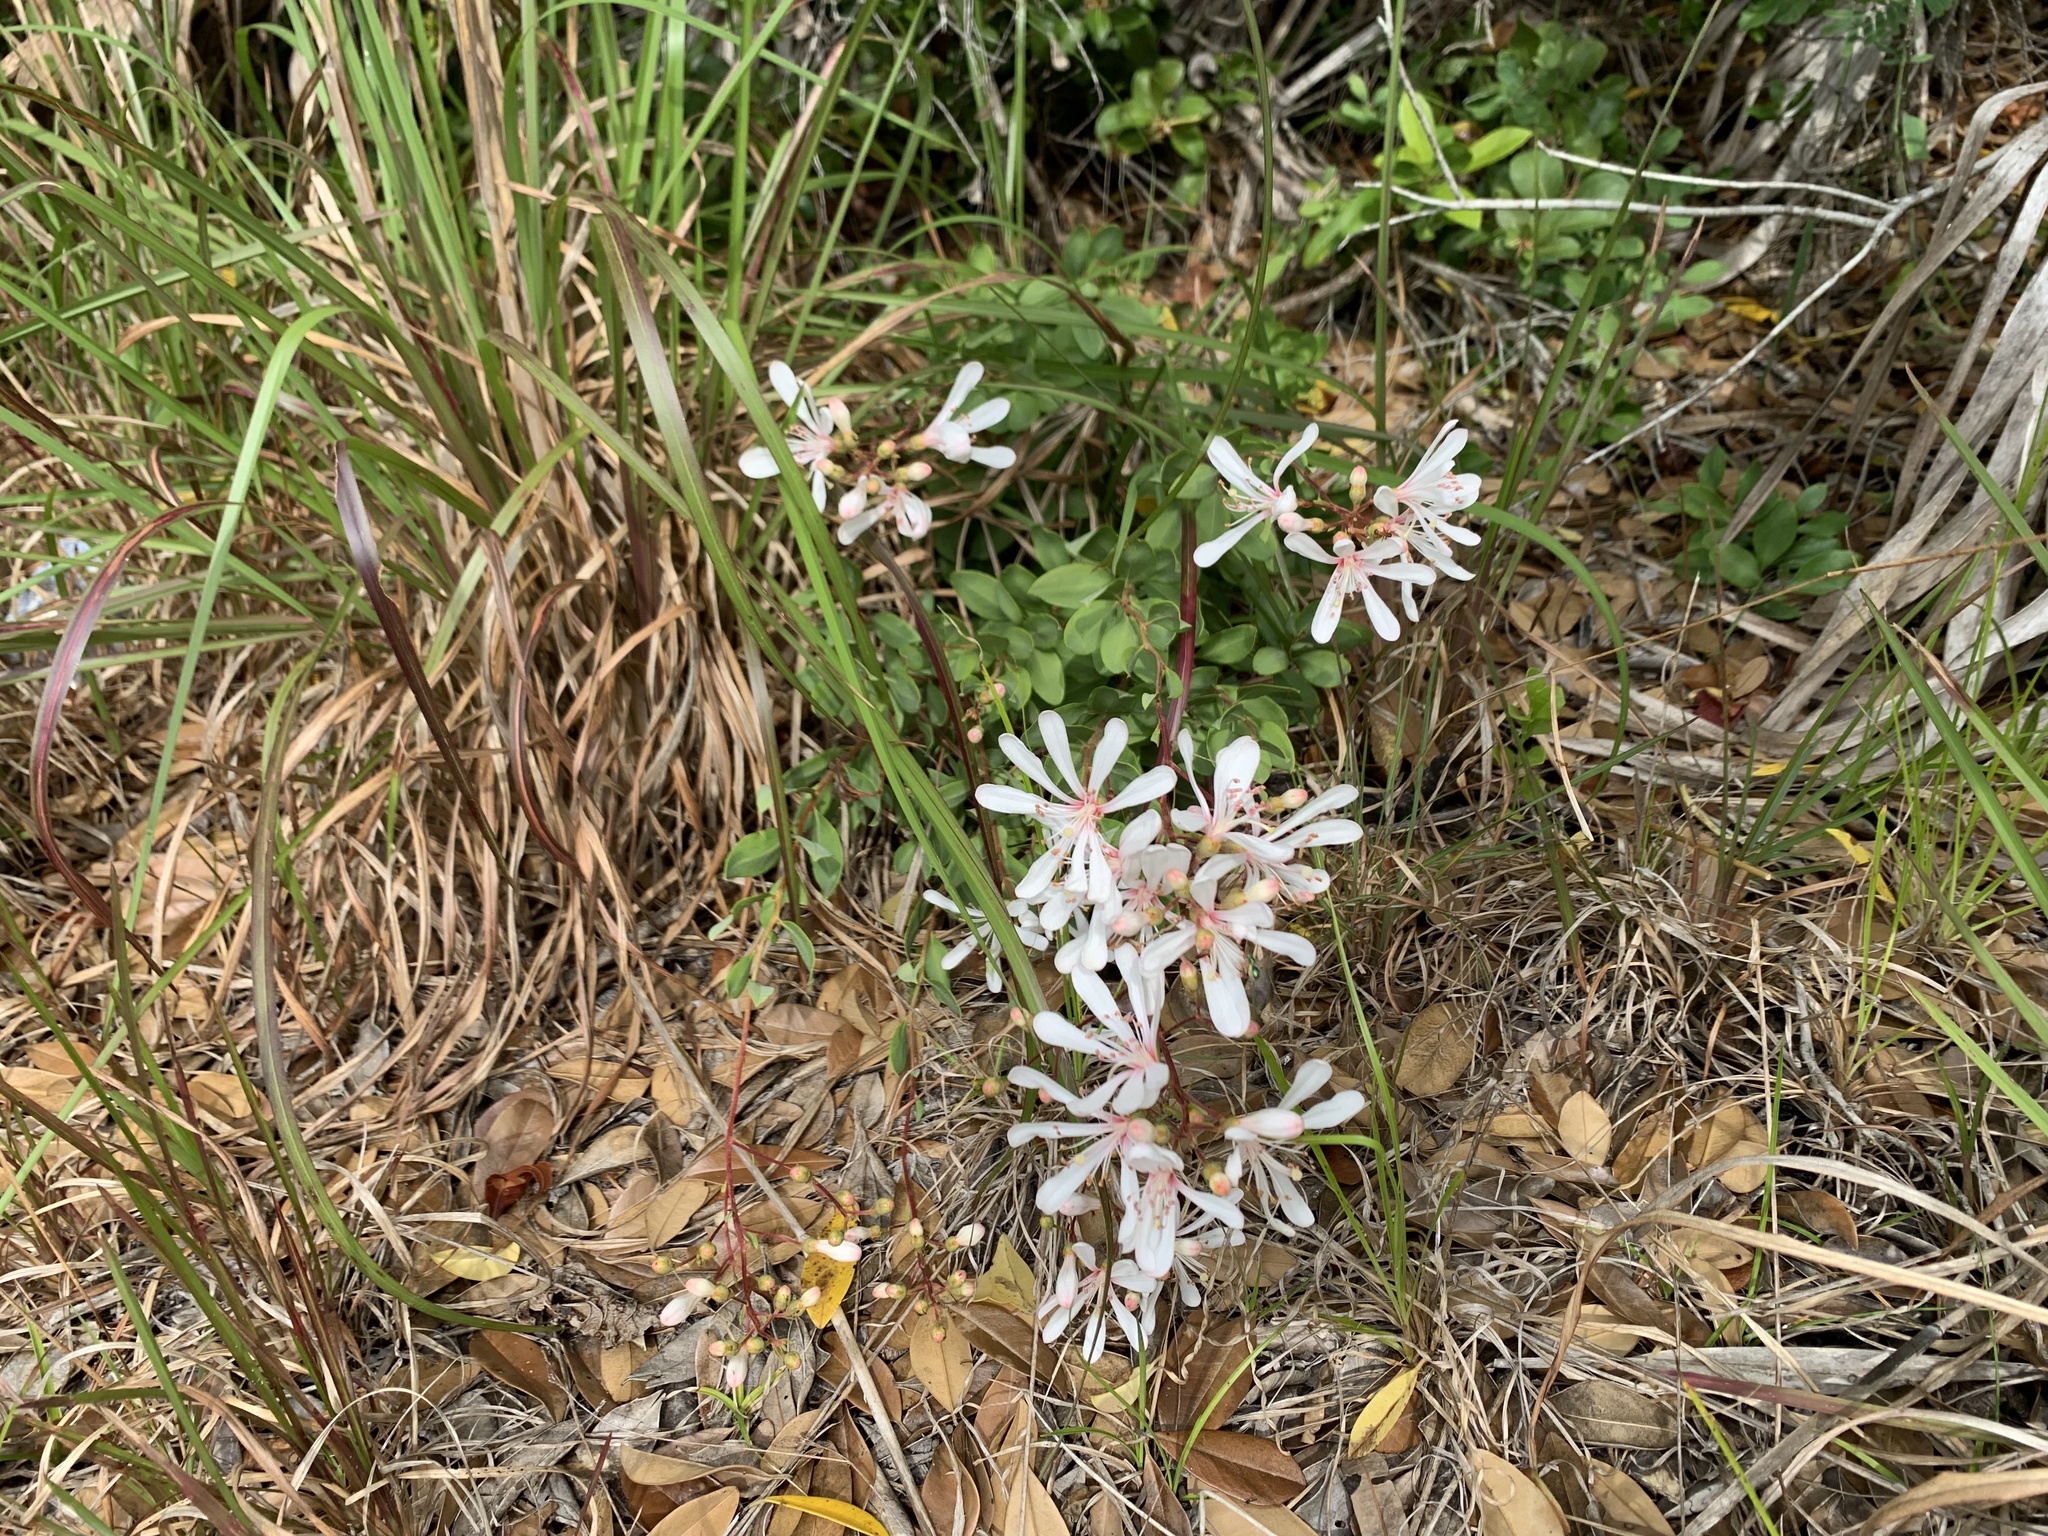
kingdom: Plantae
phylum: Tracheophyta
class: Magnoliopsida
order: Ericales
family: Ericaceae
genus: Bejaria
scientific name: Bejaria racemosa
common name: Tarflower
